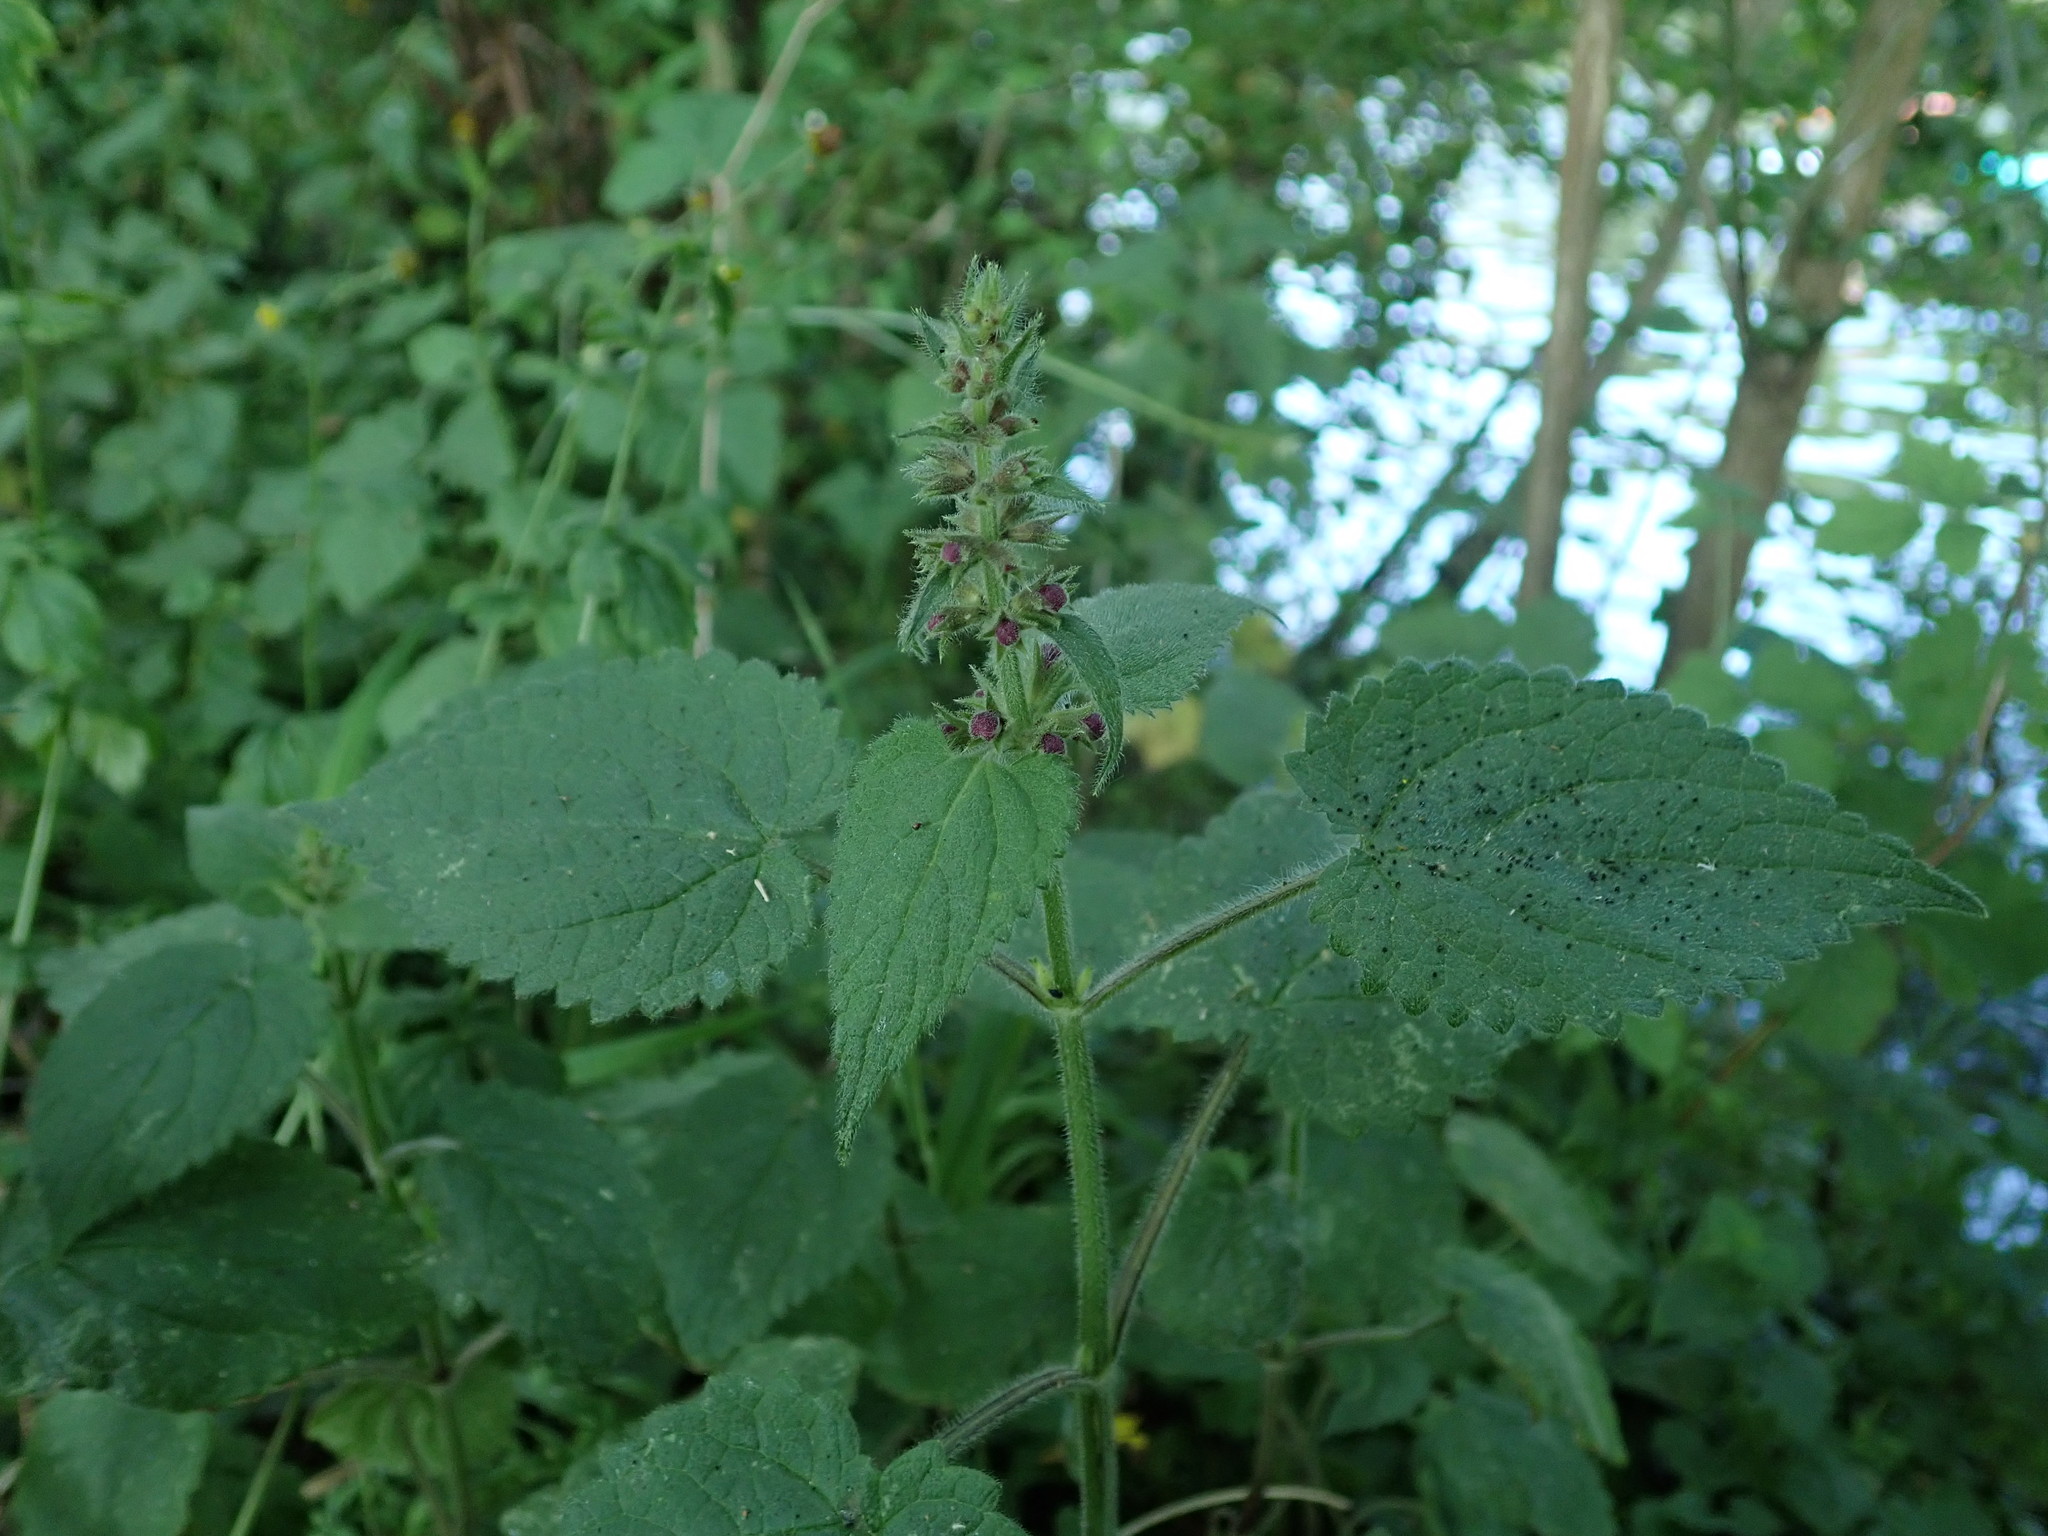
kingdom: Plantae
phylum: Tracheophyta
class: Magnoliopsida
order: Lamiales
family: Lamiaceae
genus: Stachys
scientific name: Stachys sylvatica
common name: Hedge woundwort
